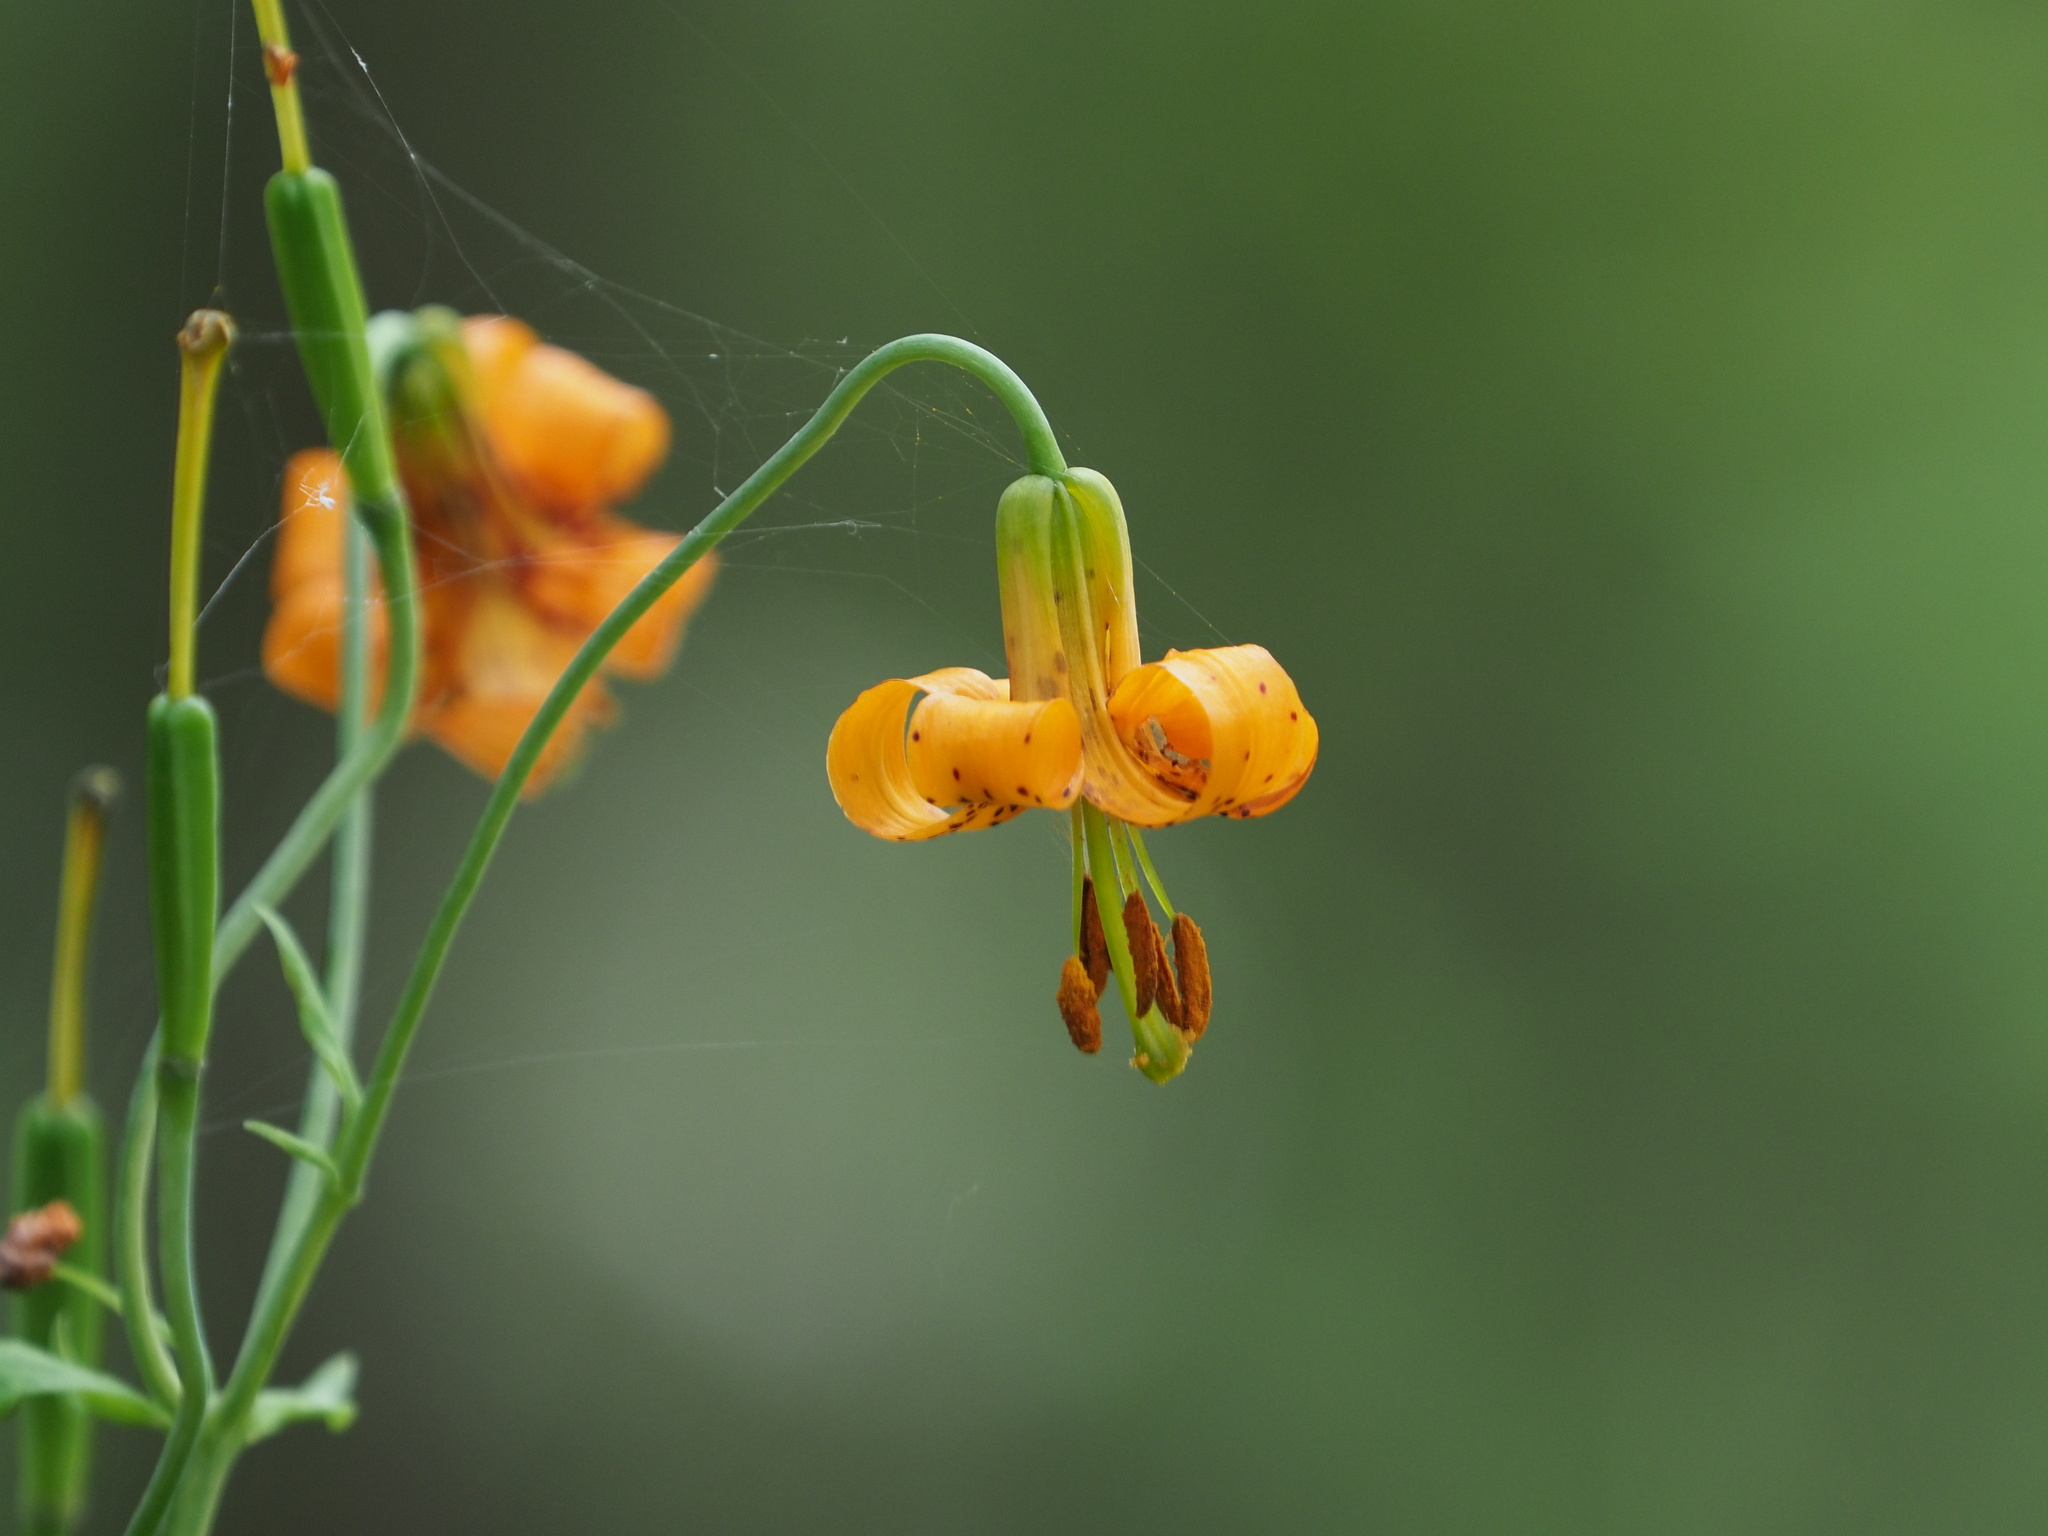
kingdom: Plantae
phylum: Tracheophyta
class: Liliopsida
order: Liliales
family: Liliaceae
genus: Lilium
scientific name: Lilium columbianum
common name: Columbia lily
